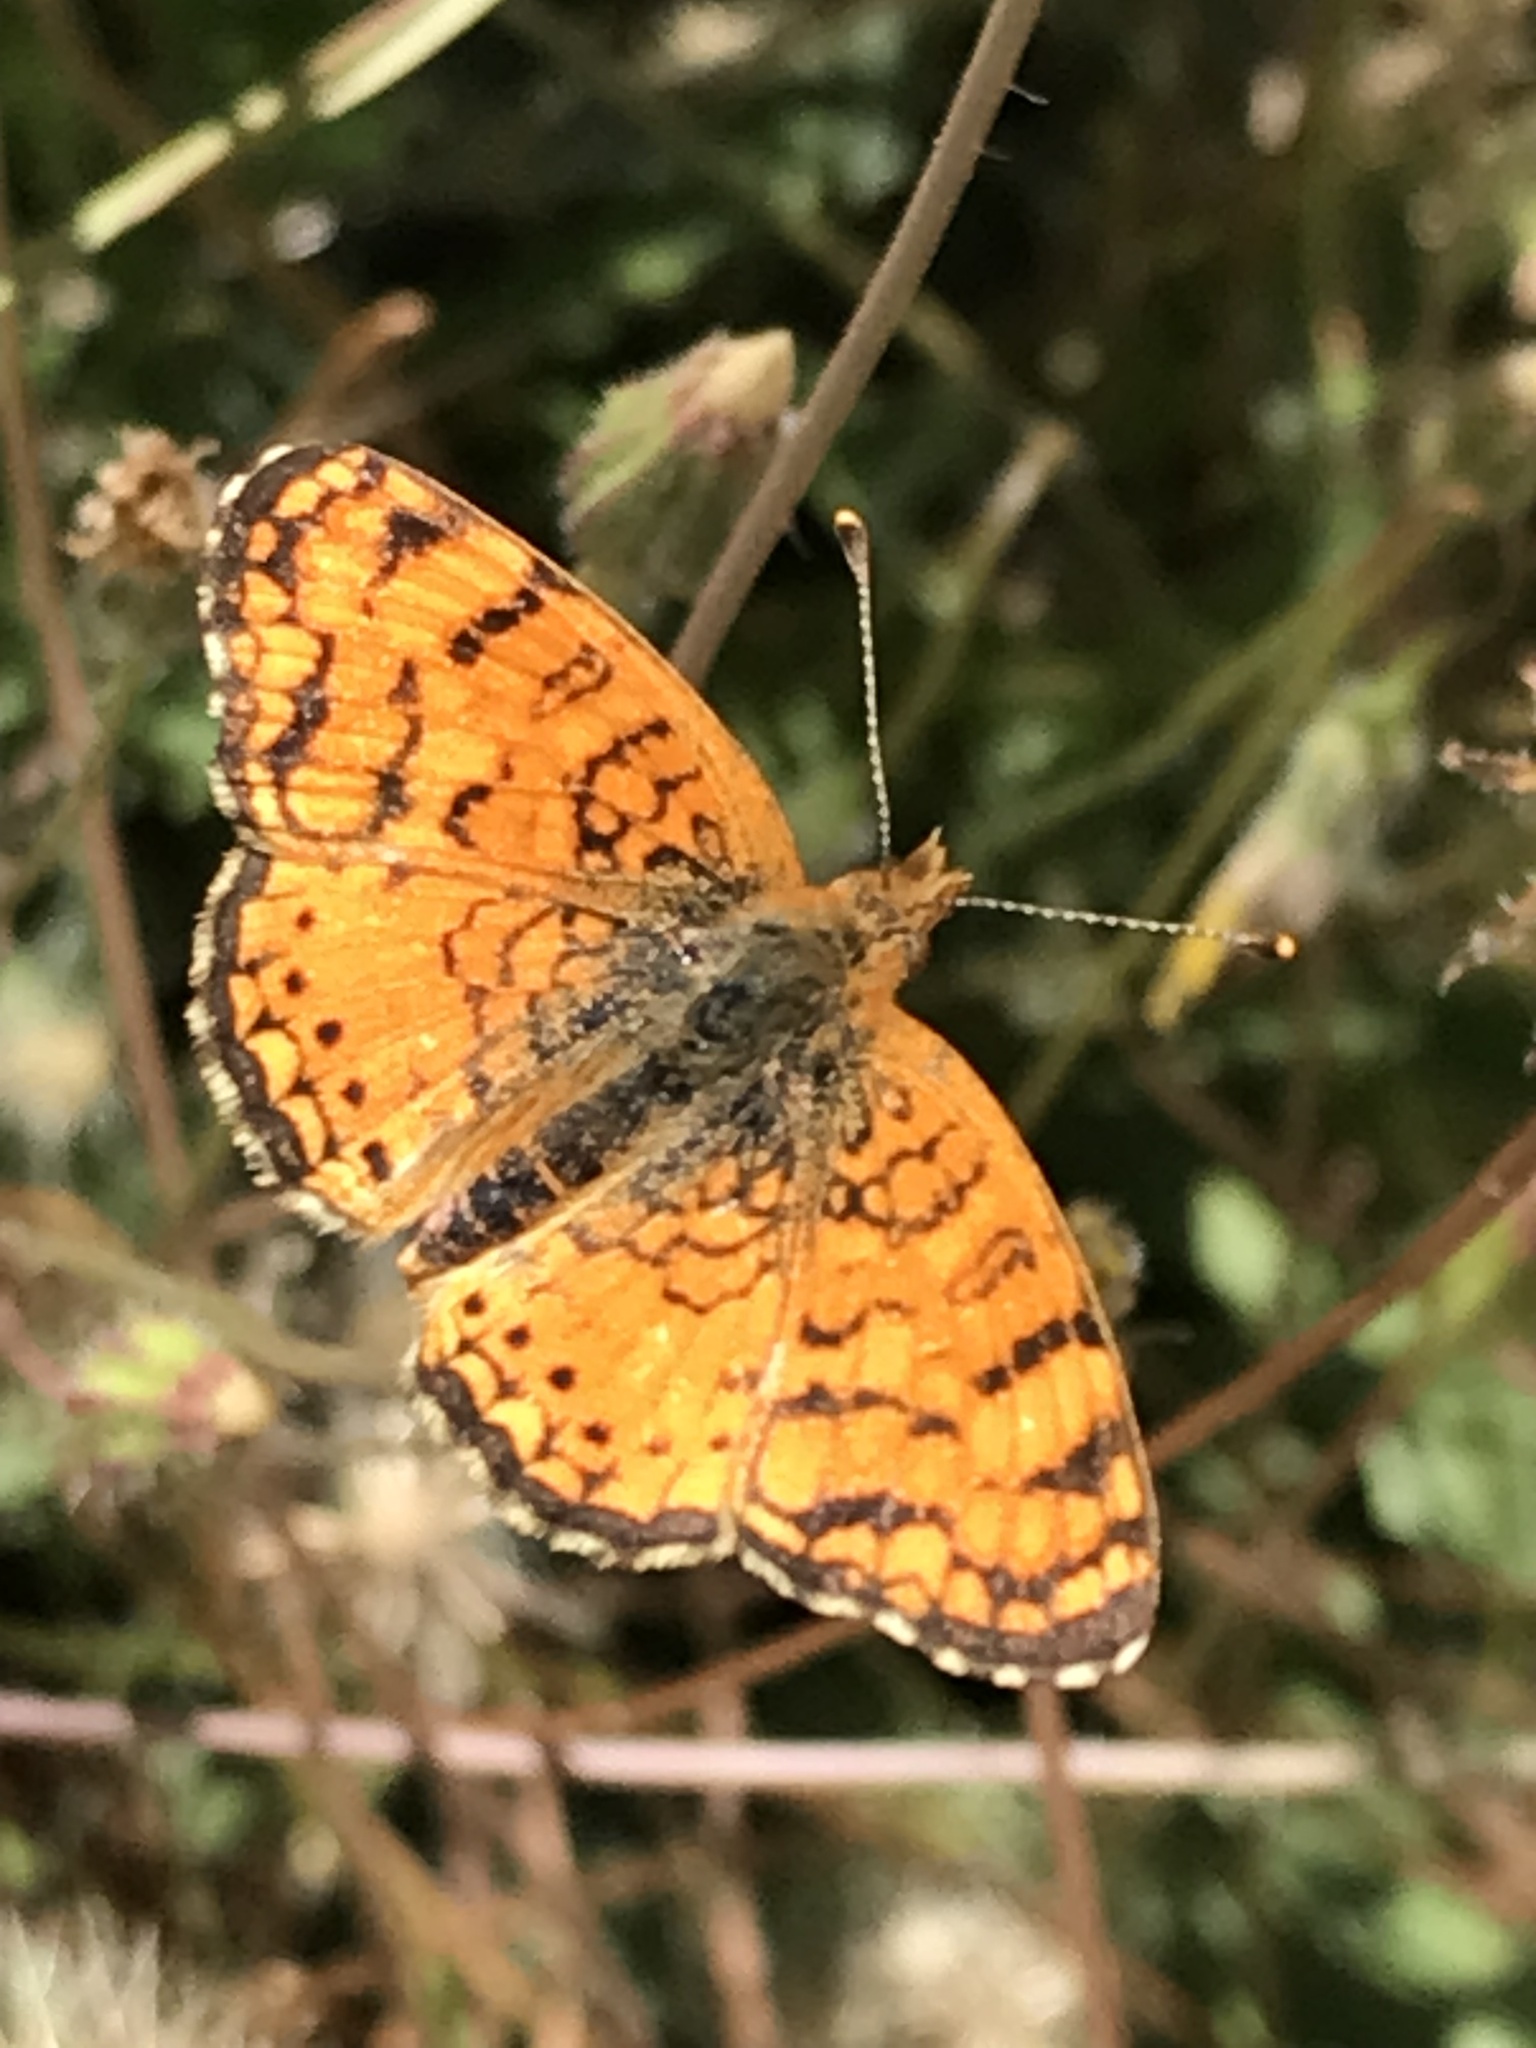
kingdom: Animalia
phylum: Arthropoda
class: Insecta
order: Lepidoptera
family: Nymphalidae
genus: Eresia
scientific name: Eresia aveyrona
